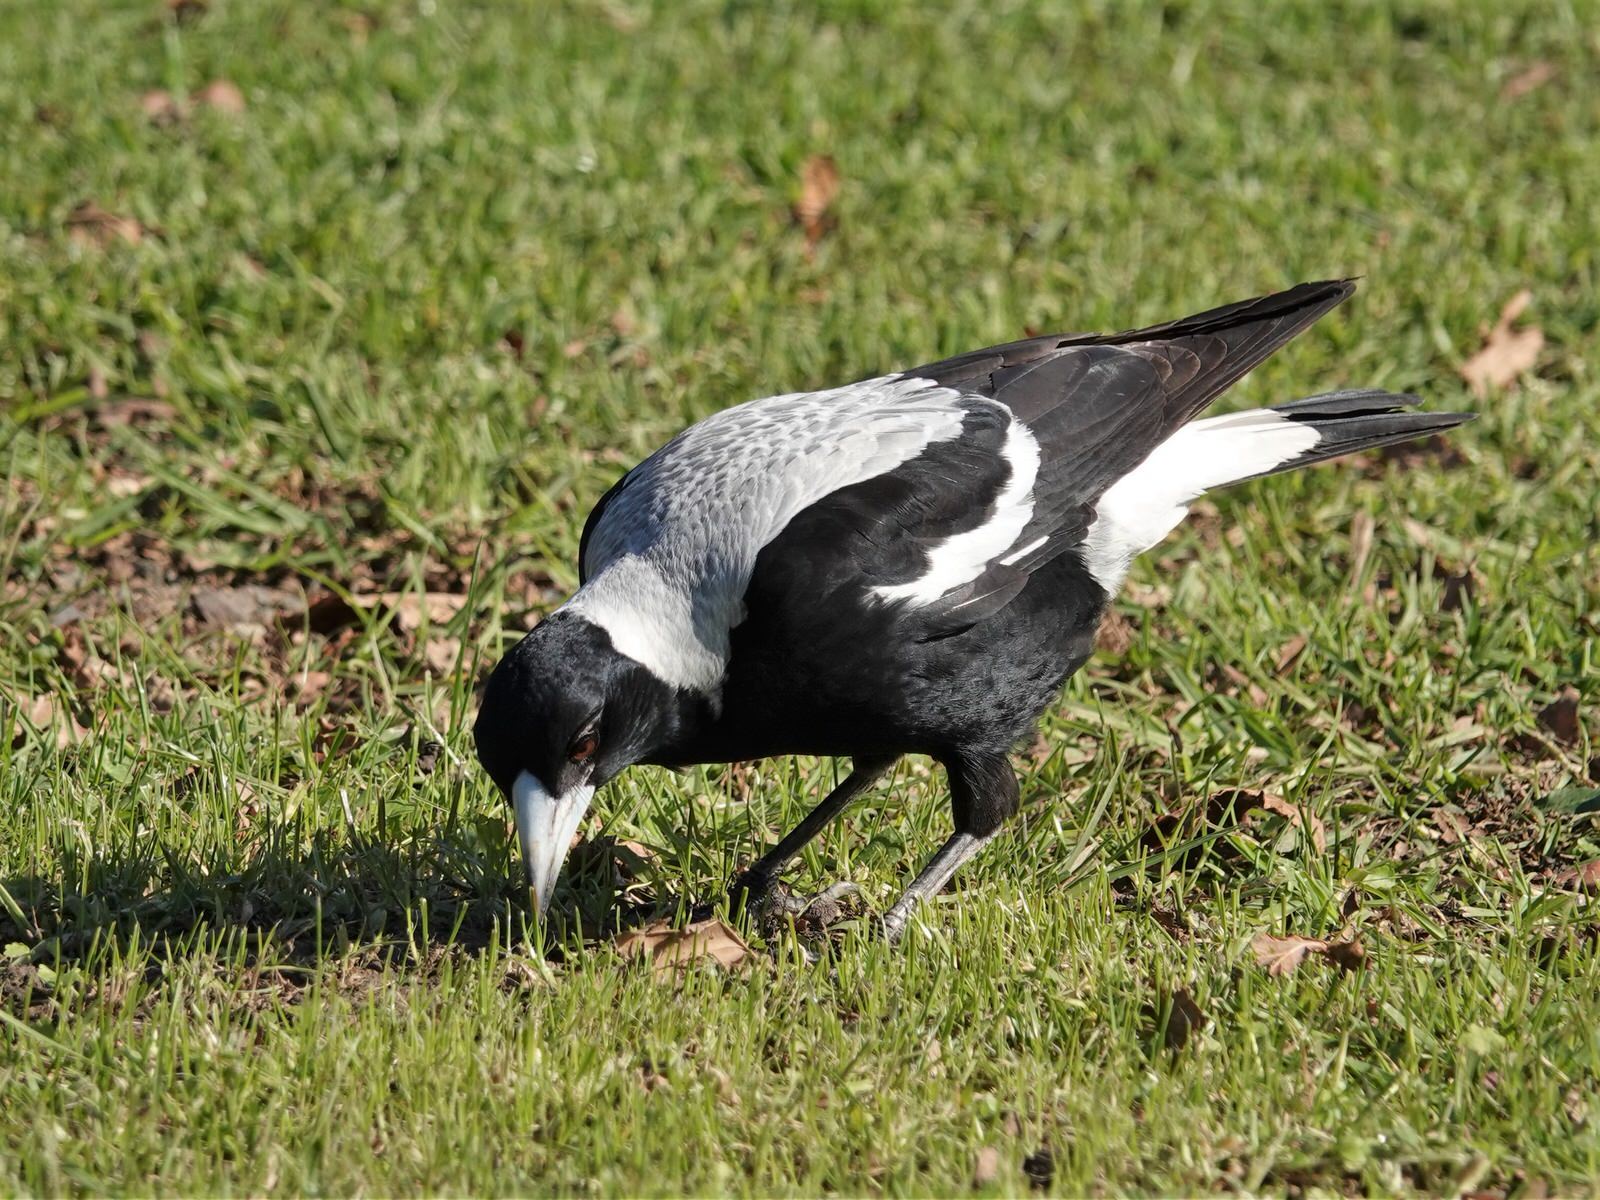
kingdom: Animalia
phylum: Chordata
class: Aves
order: Passeriformes
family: Cracticidae
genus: Gymnorhina
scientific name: Gymnorhina tibicen
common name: Australian magpie
